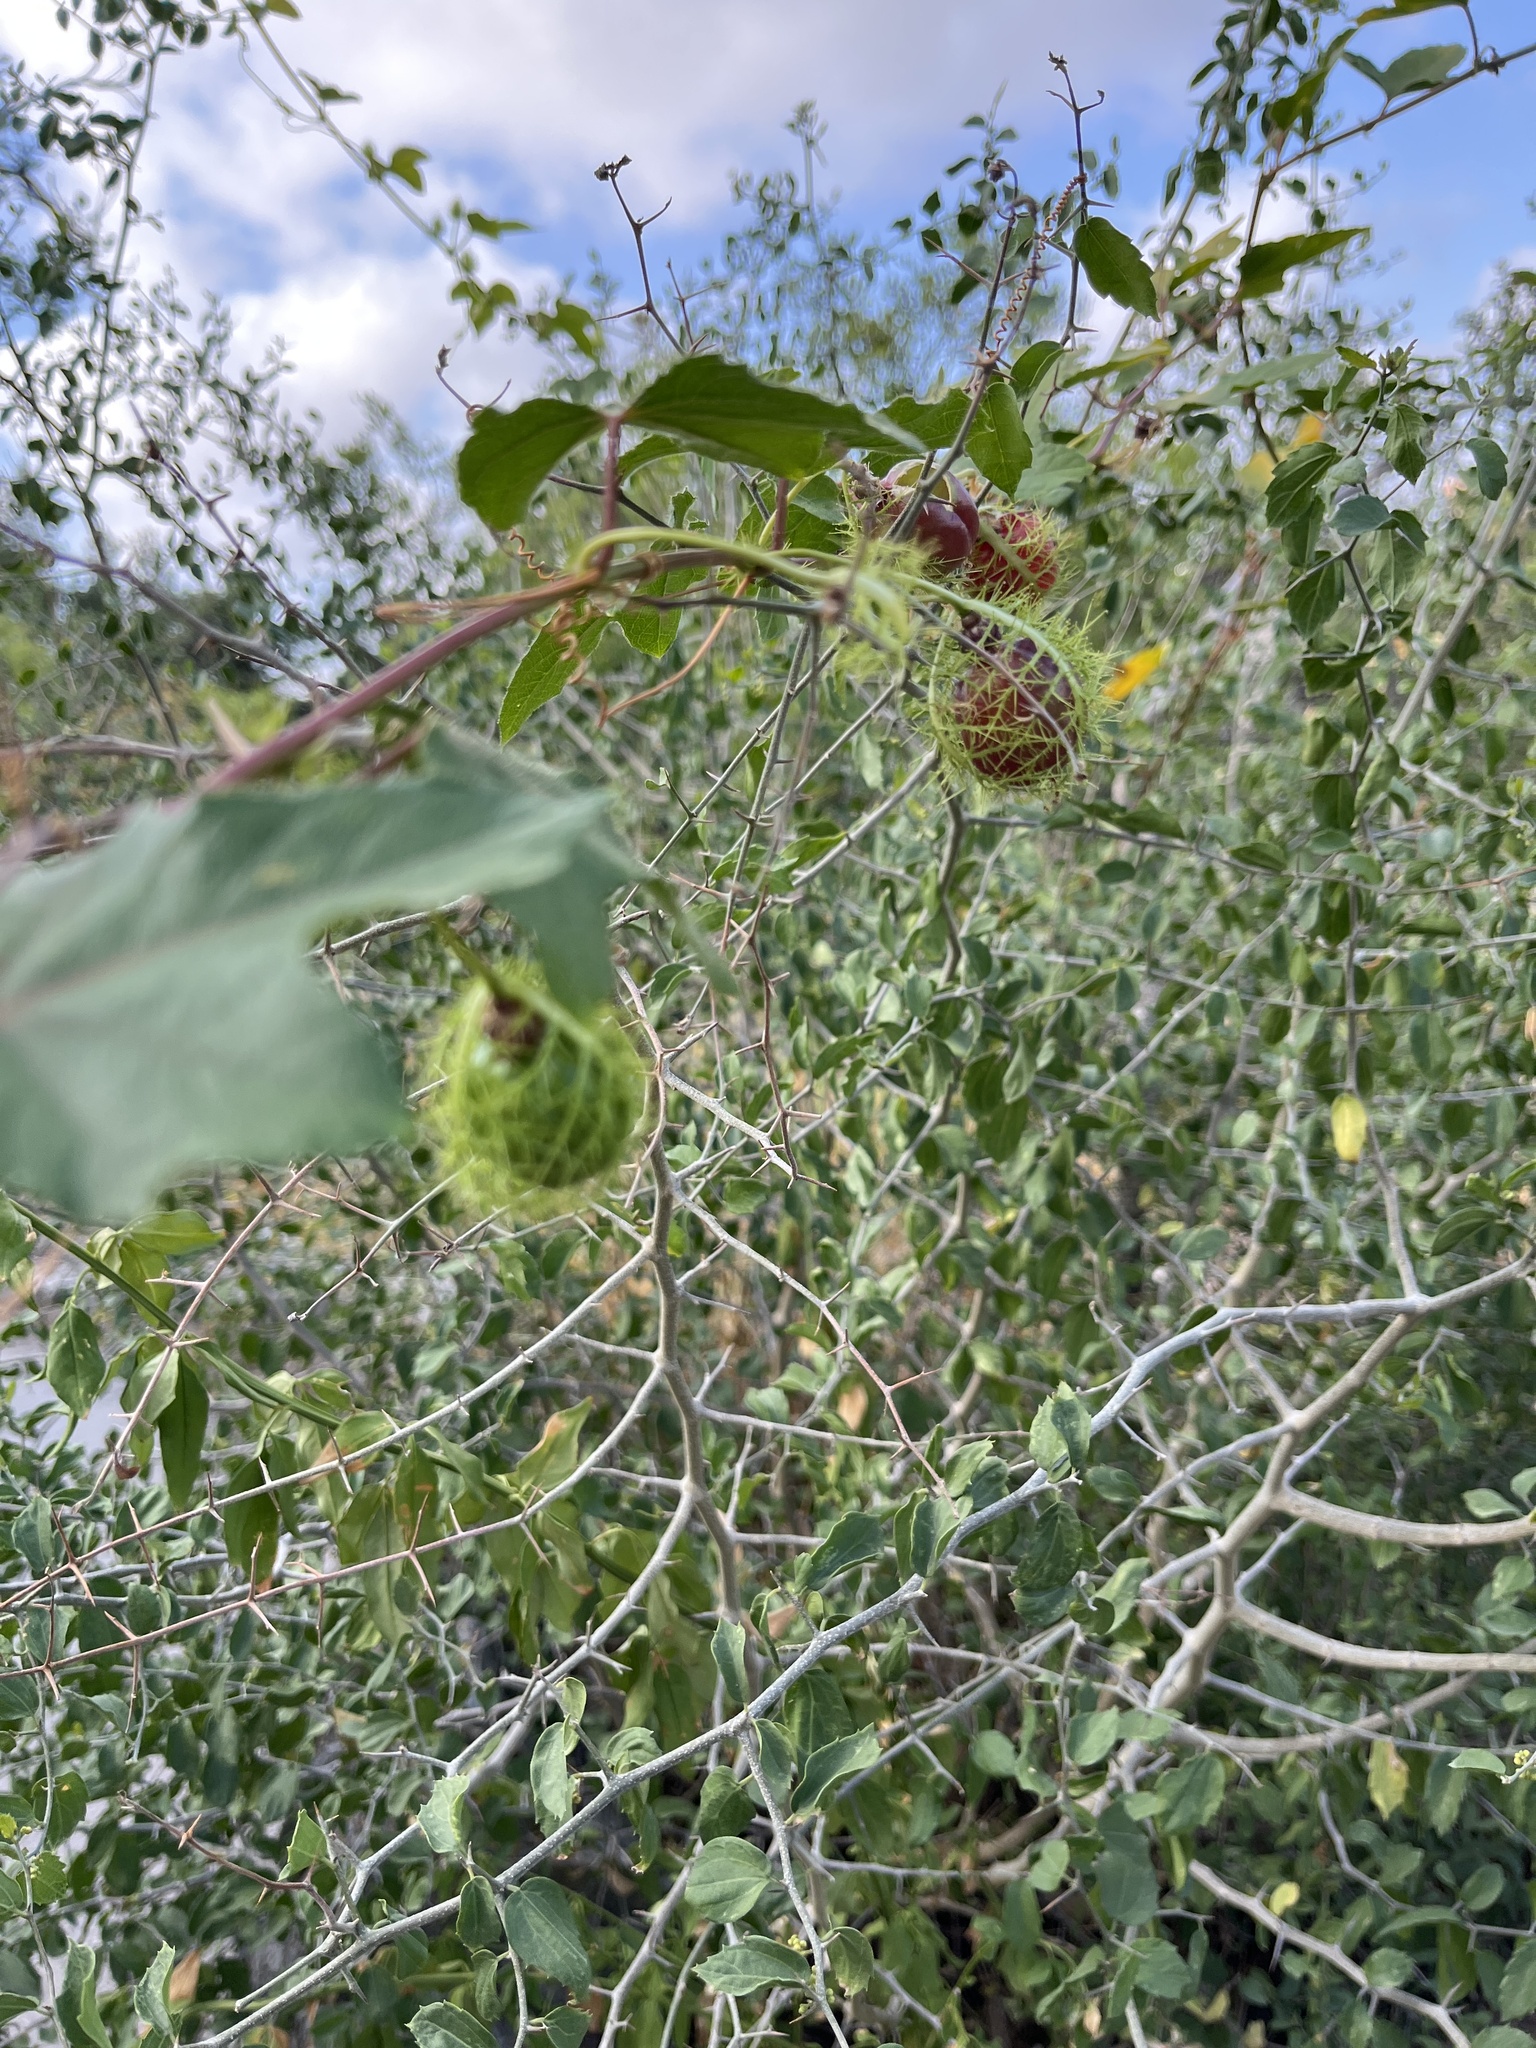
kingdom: Plantae
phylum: Tracheophyta
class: Magnoliopsida
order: Malpighiales
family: Passifloraceae
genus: Passiflora
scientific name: Passiflora
